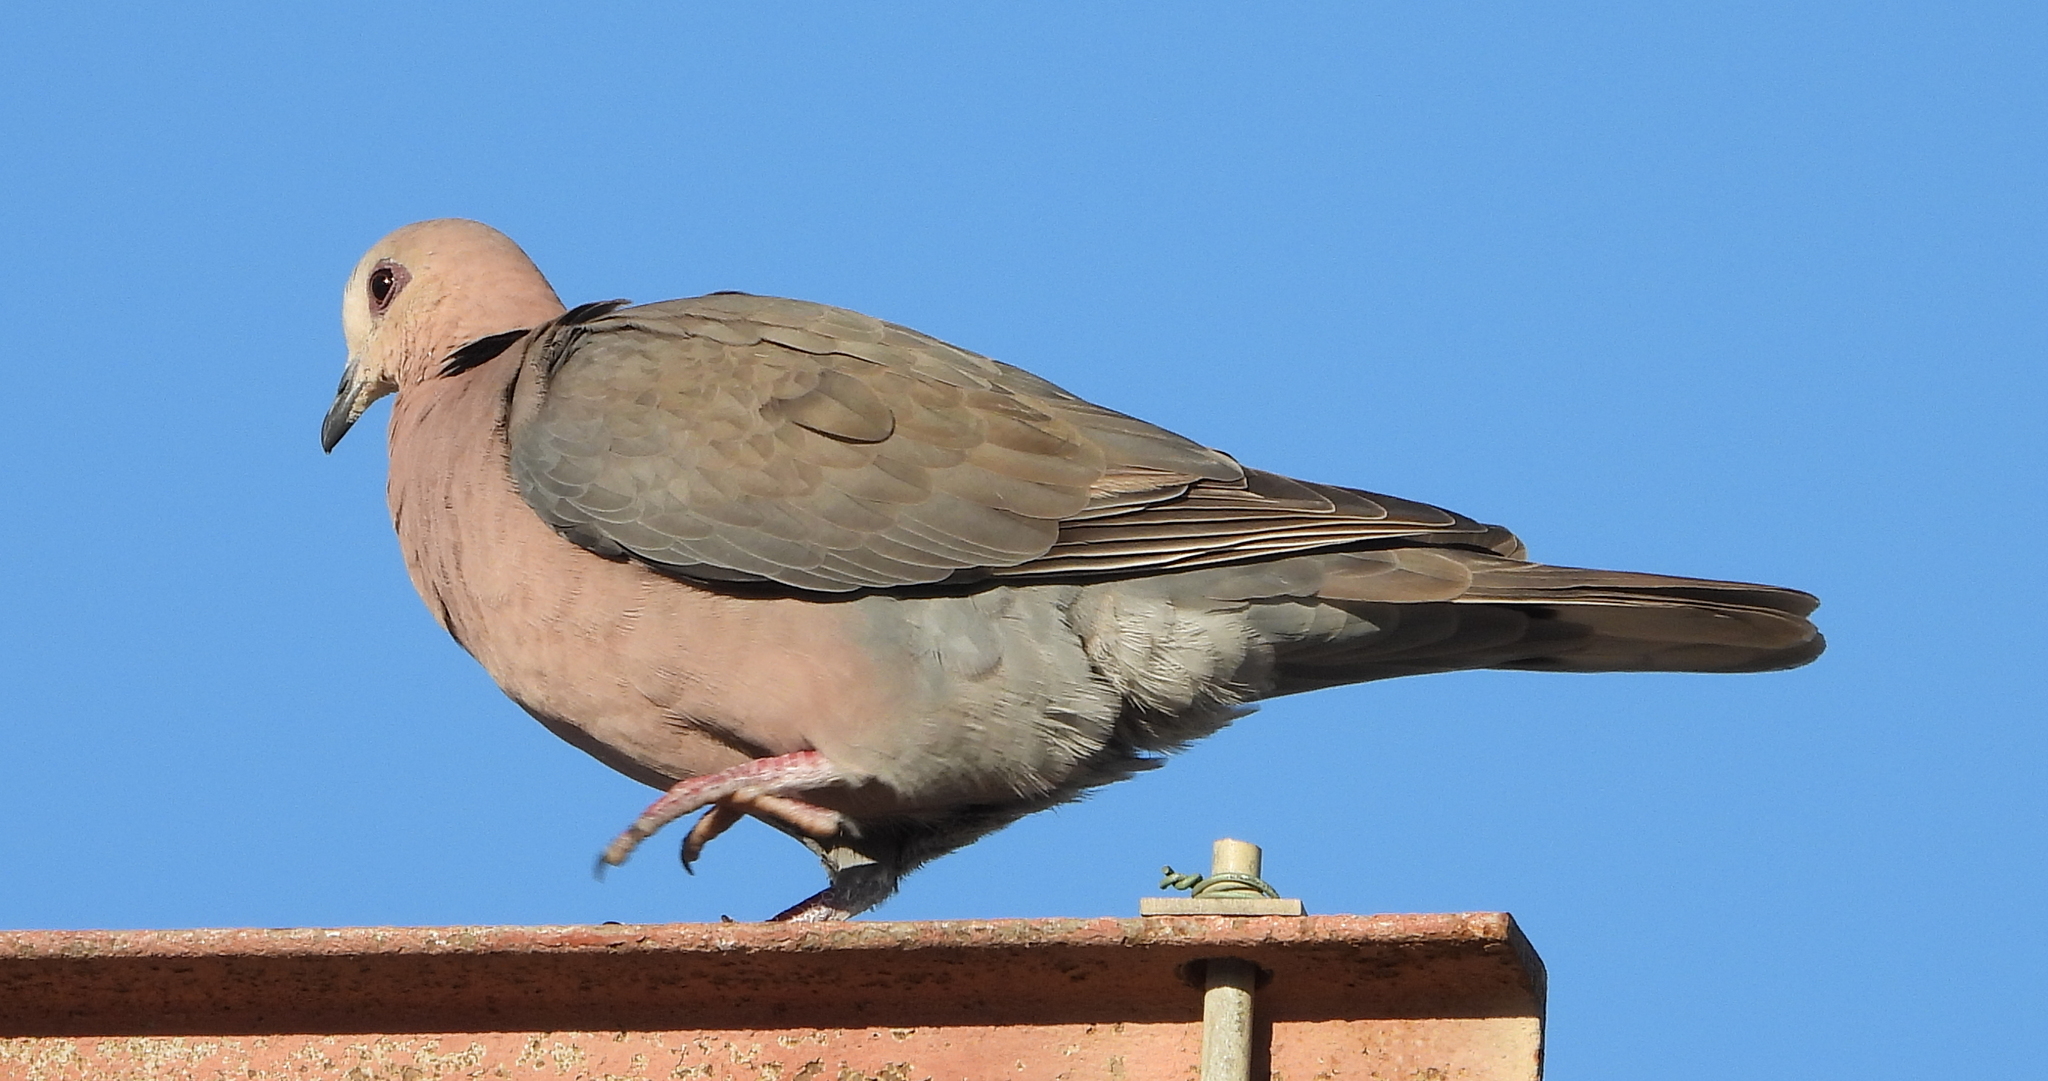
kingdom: Animalia
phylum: Chordata
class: Aves
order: Columbiformes
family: Columbidae
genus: Streptopelia
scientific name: Streptopelia semitorquata
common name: Red-eyed dove
